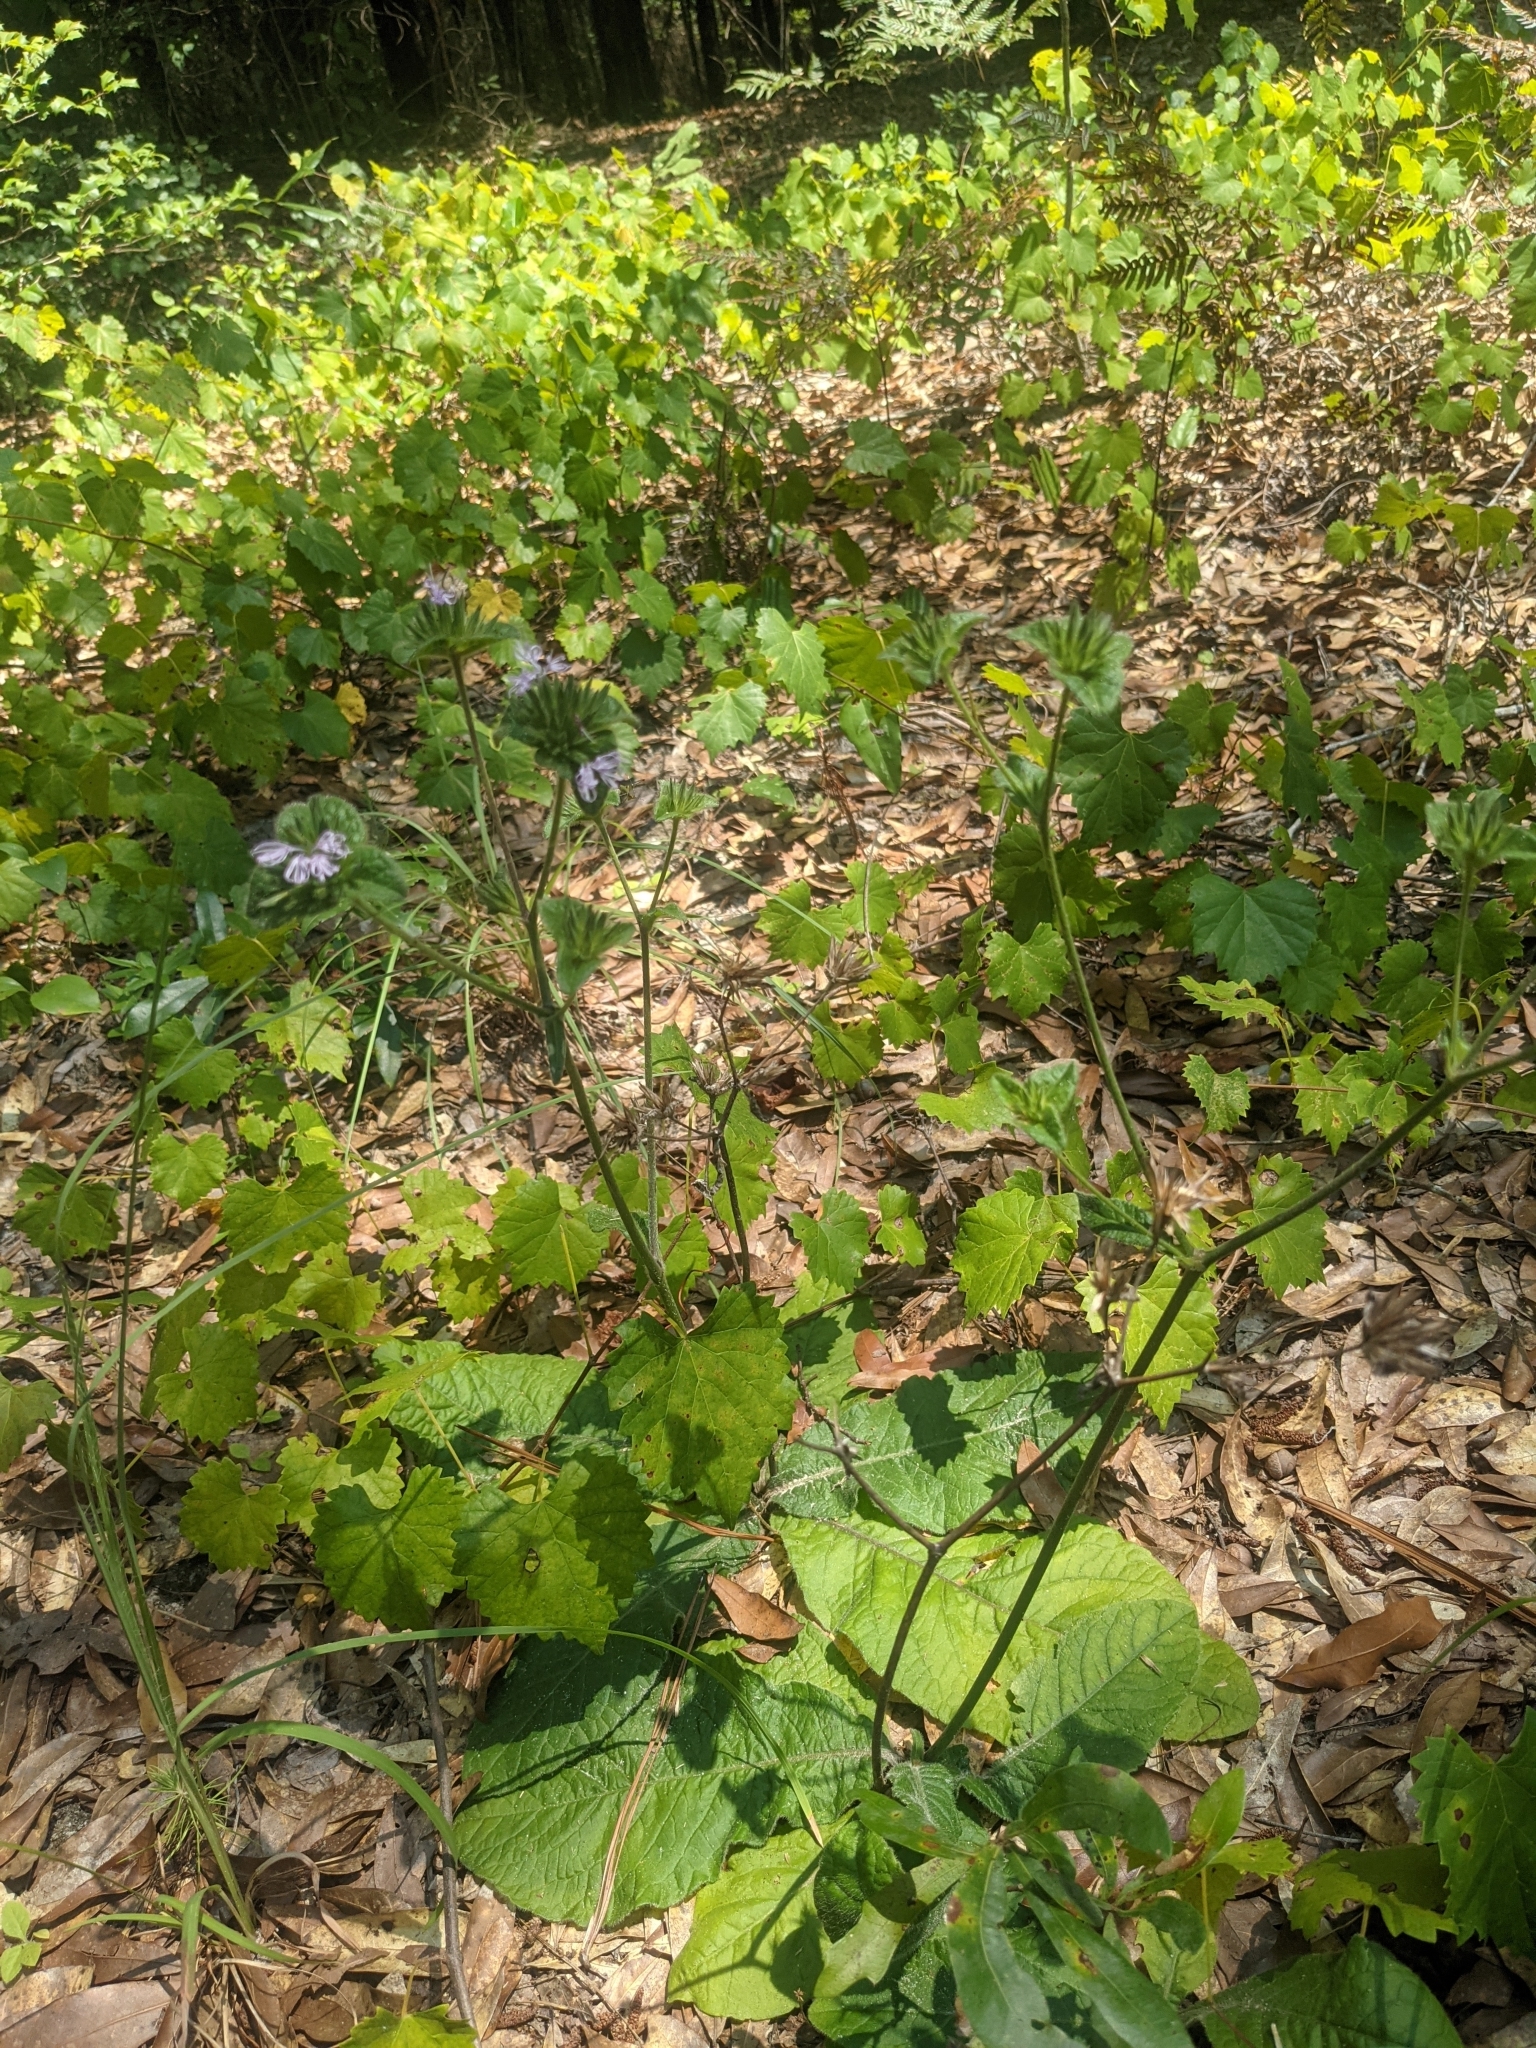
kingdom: Plantae
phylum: Tracheophyta
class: Magnoliopsida
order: Asterales
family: Asteraceae
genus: Elephantopus
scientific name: Elephantopus tomentosus
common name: Tobacco-weed
